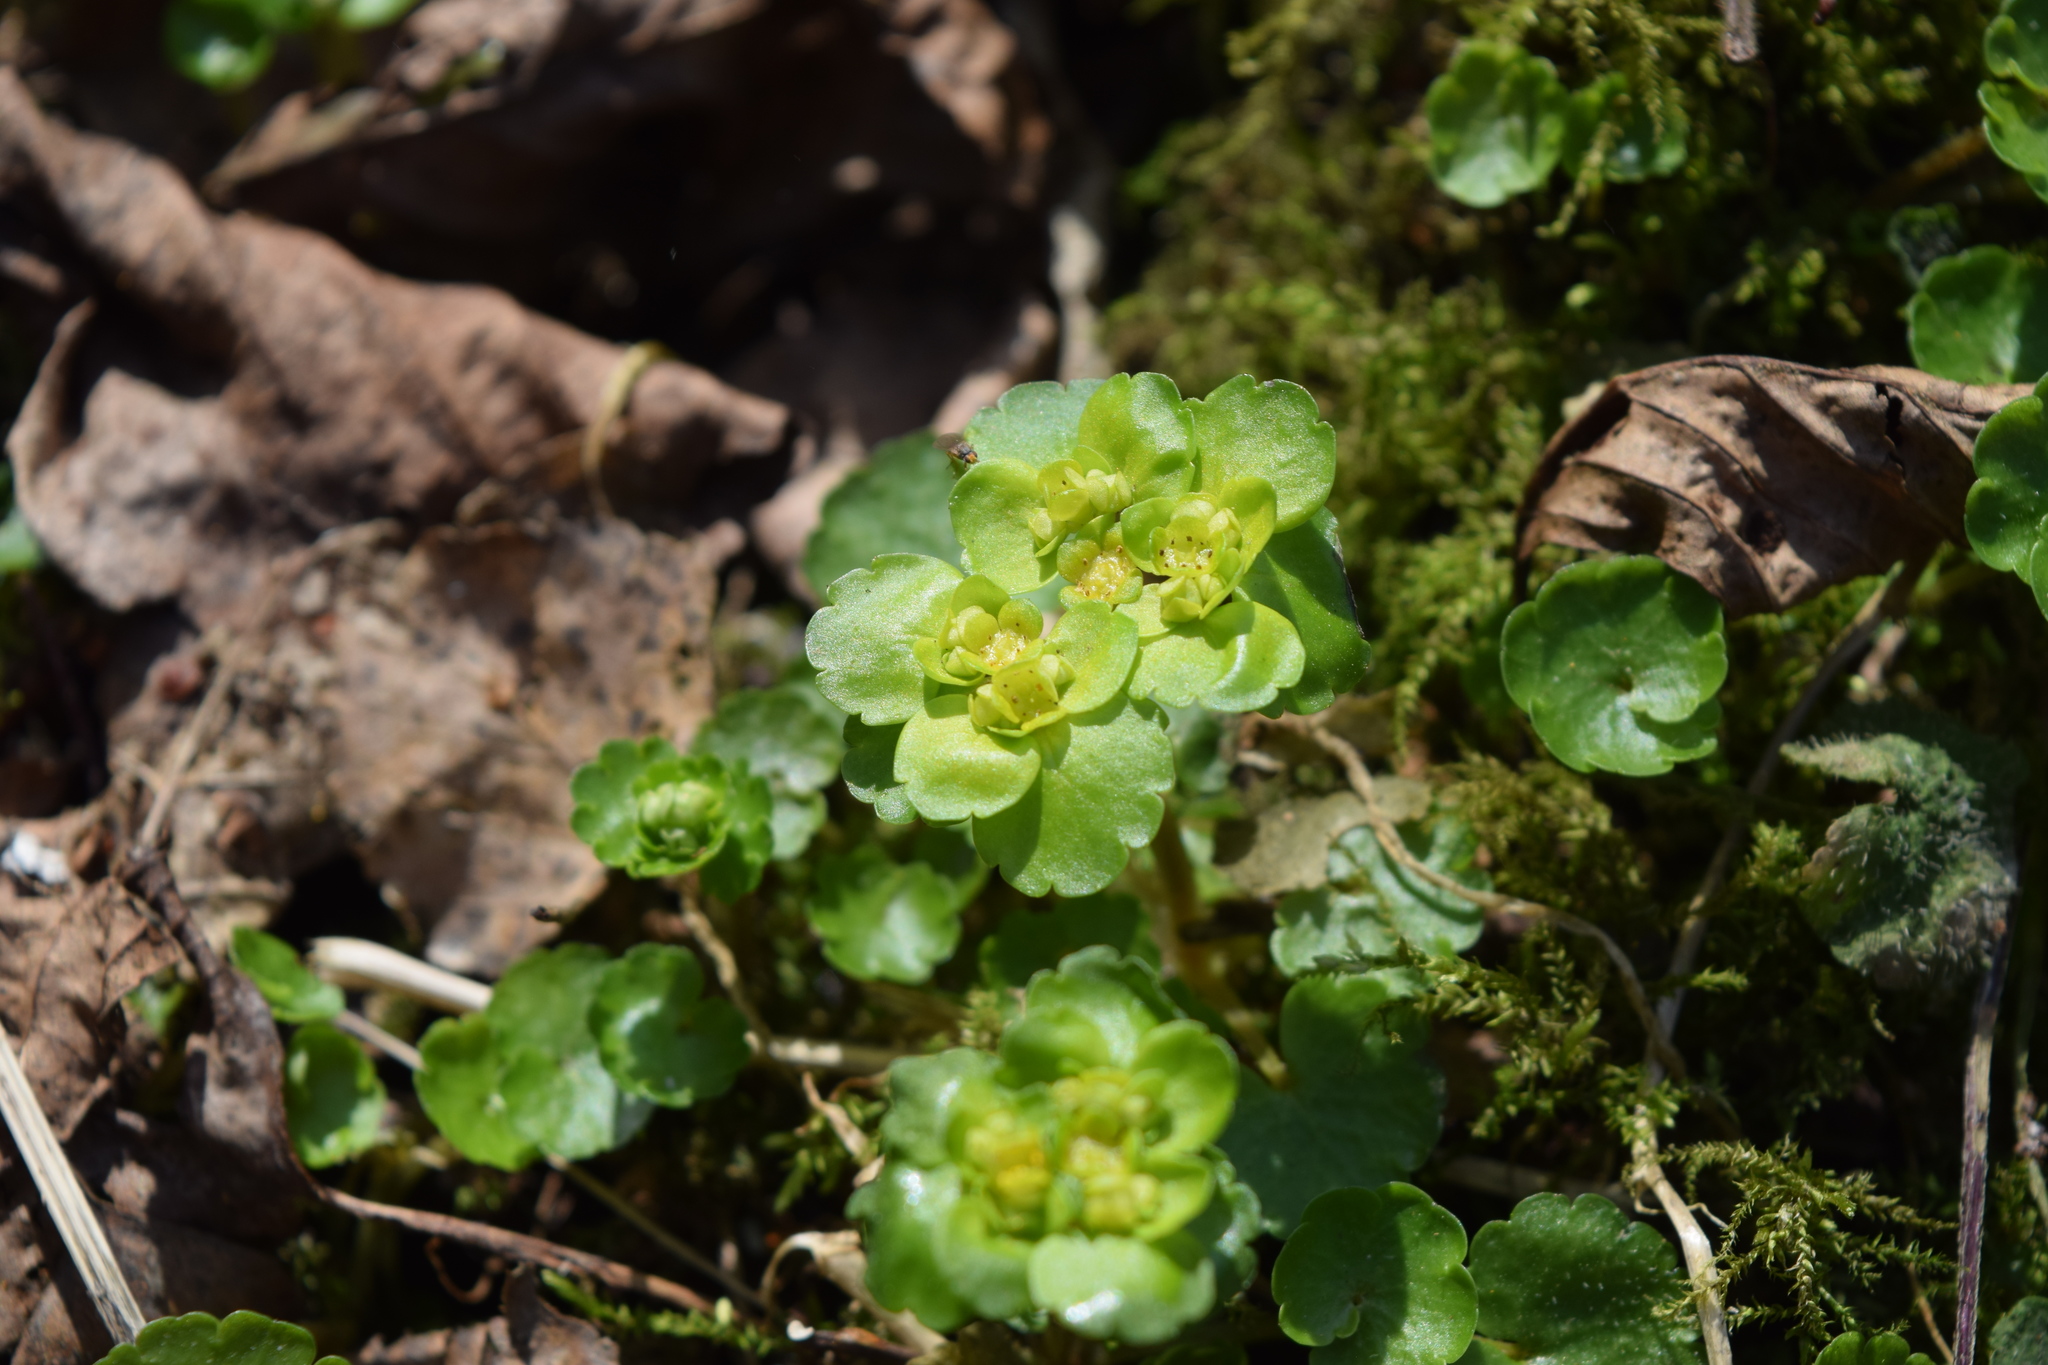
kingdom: Plantae
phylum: Tracheophyta
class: Magnoliopsida
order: Saxifragales
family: Saxifragaceae
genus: Chrysosplenium
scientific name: Chrysosplenium alternifolium
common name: Alternate-leaved golden-saxifrage
